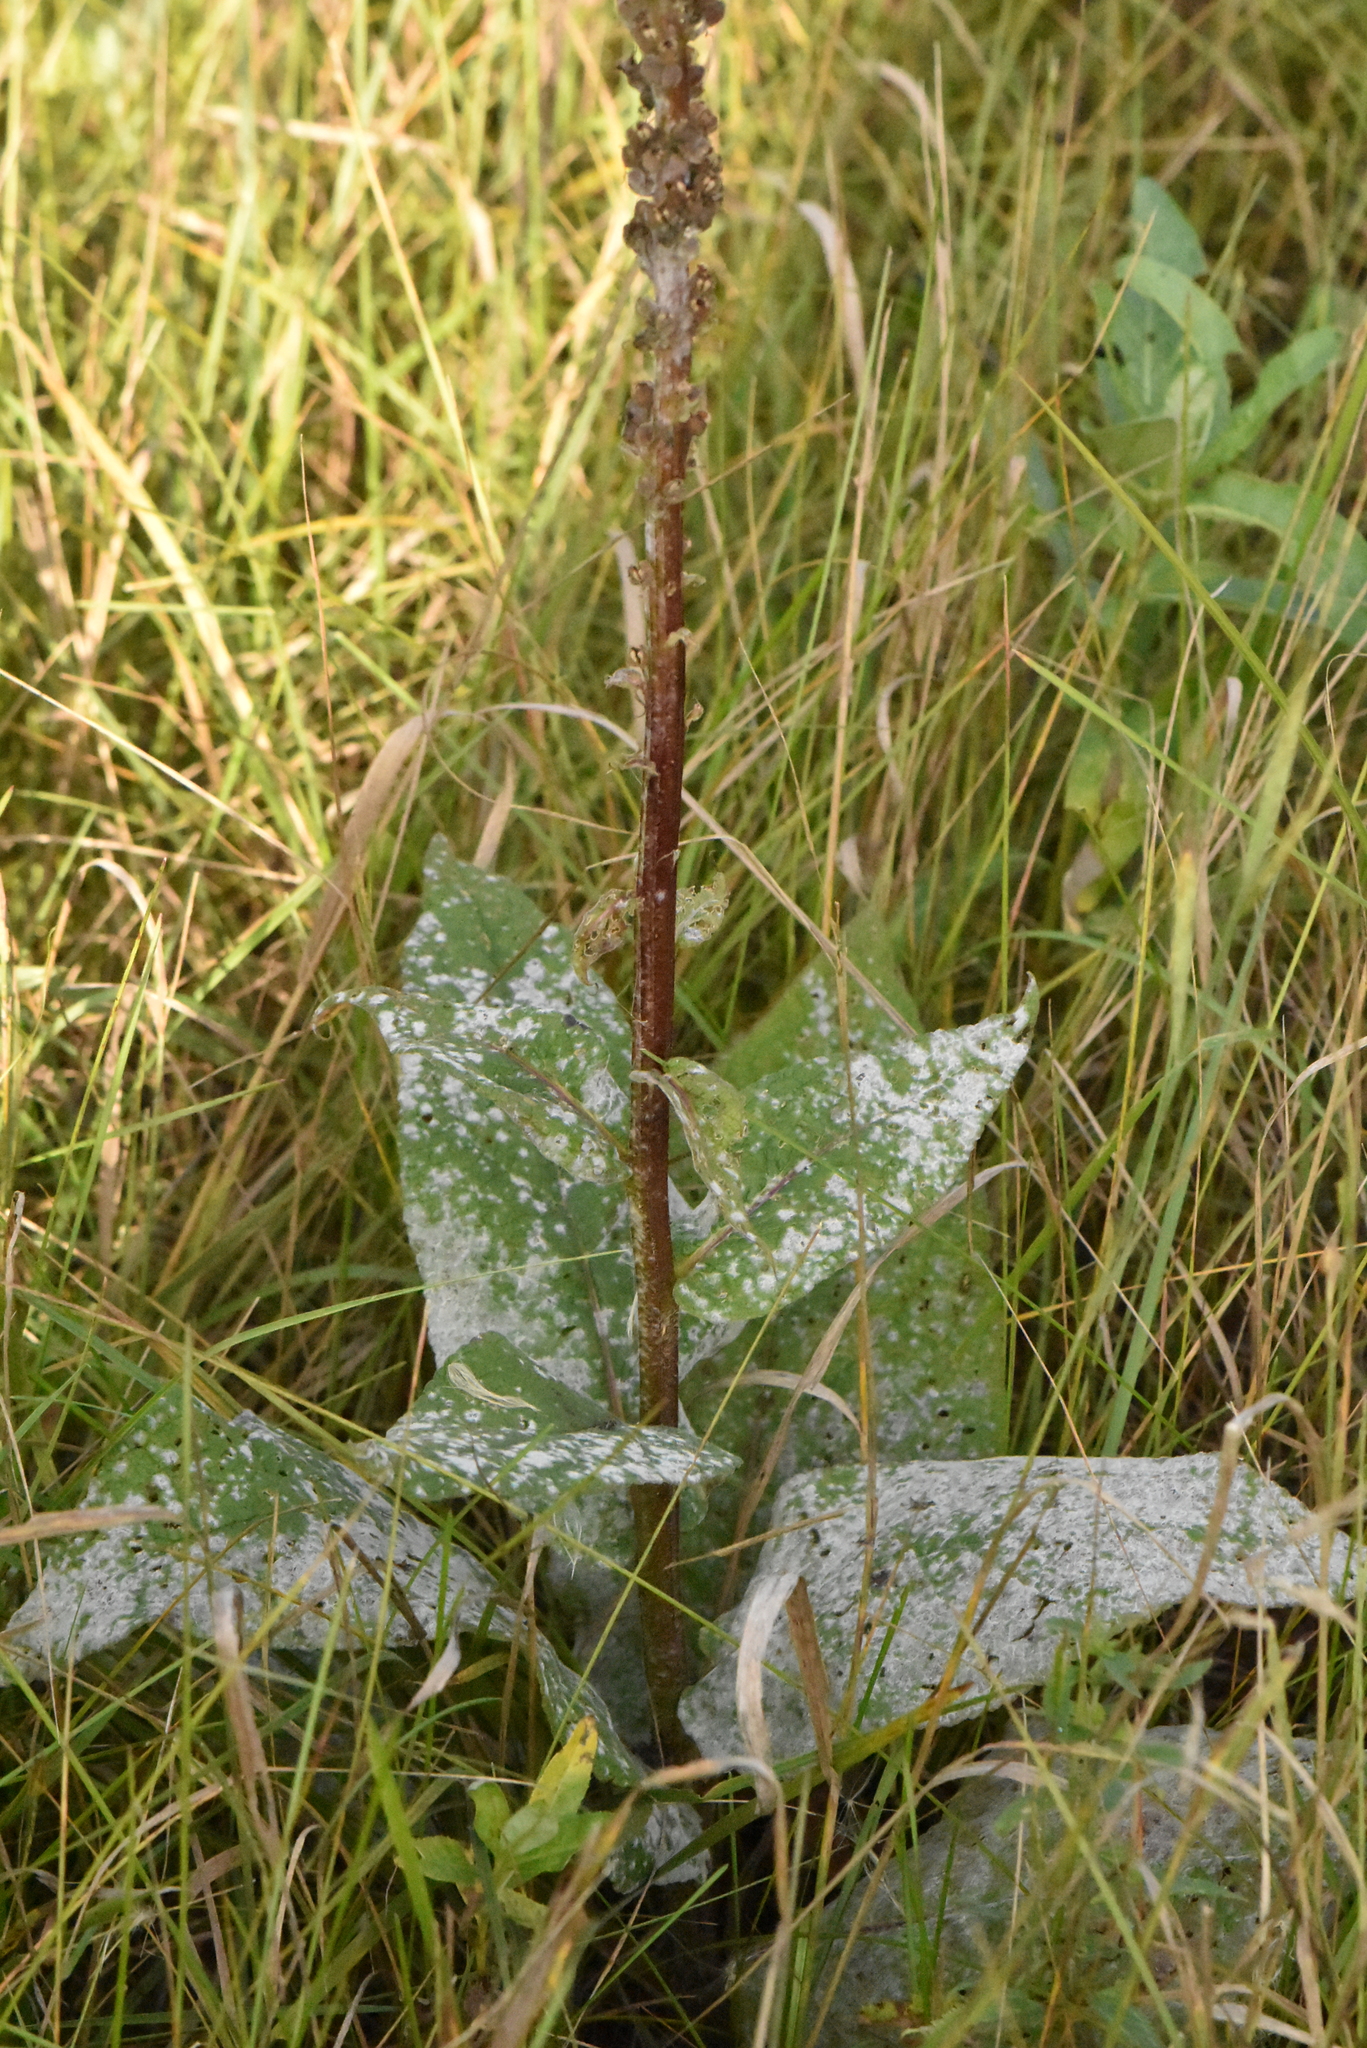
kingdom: Plantae
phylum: Tracheophyta
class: Magnoliopsida
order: Lamiales
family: Scrophulariaceae
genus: Verbascum
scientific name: Verbascum nigrum
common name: Dark mullein
